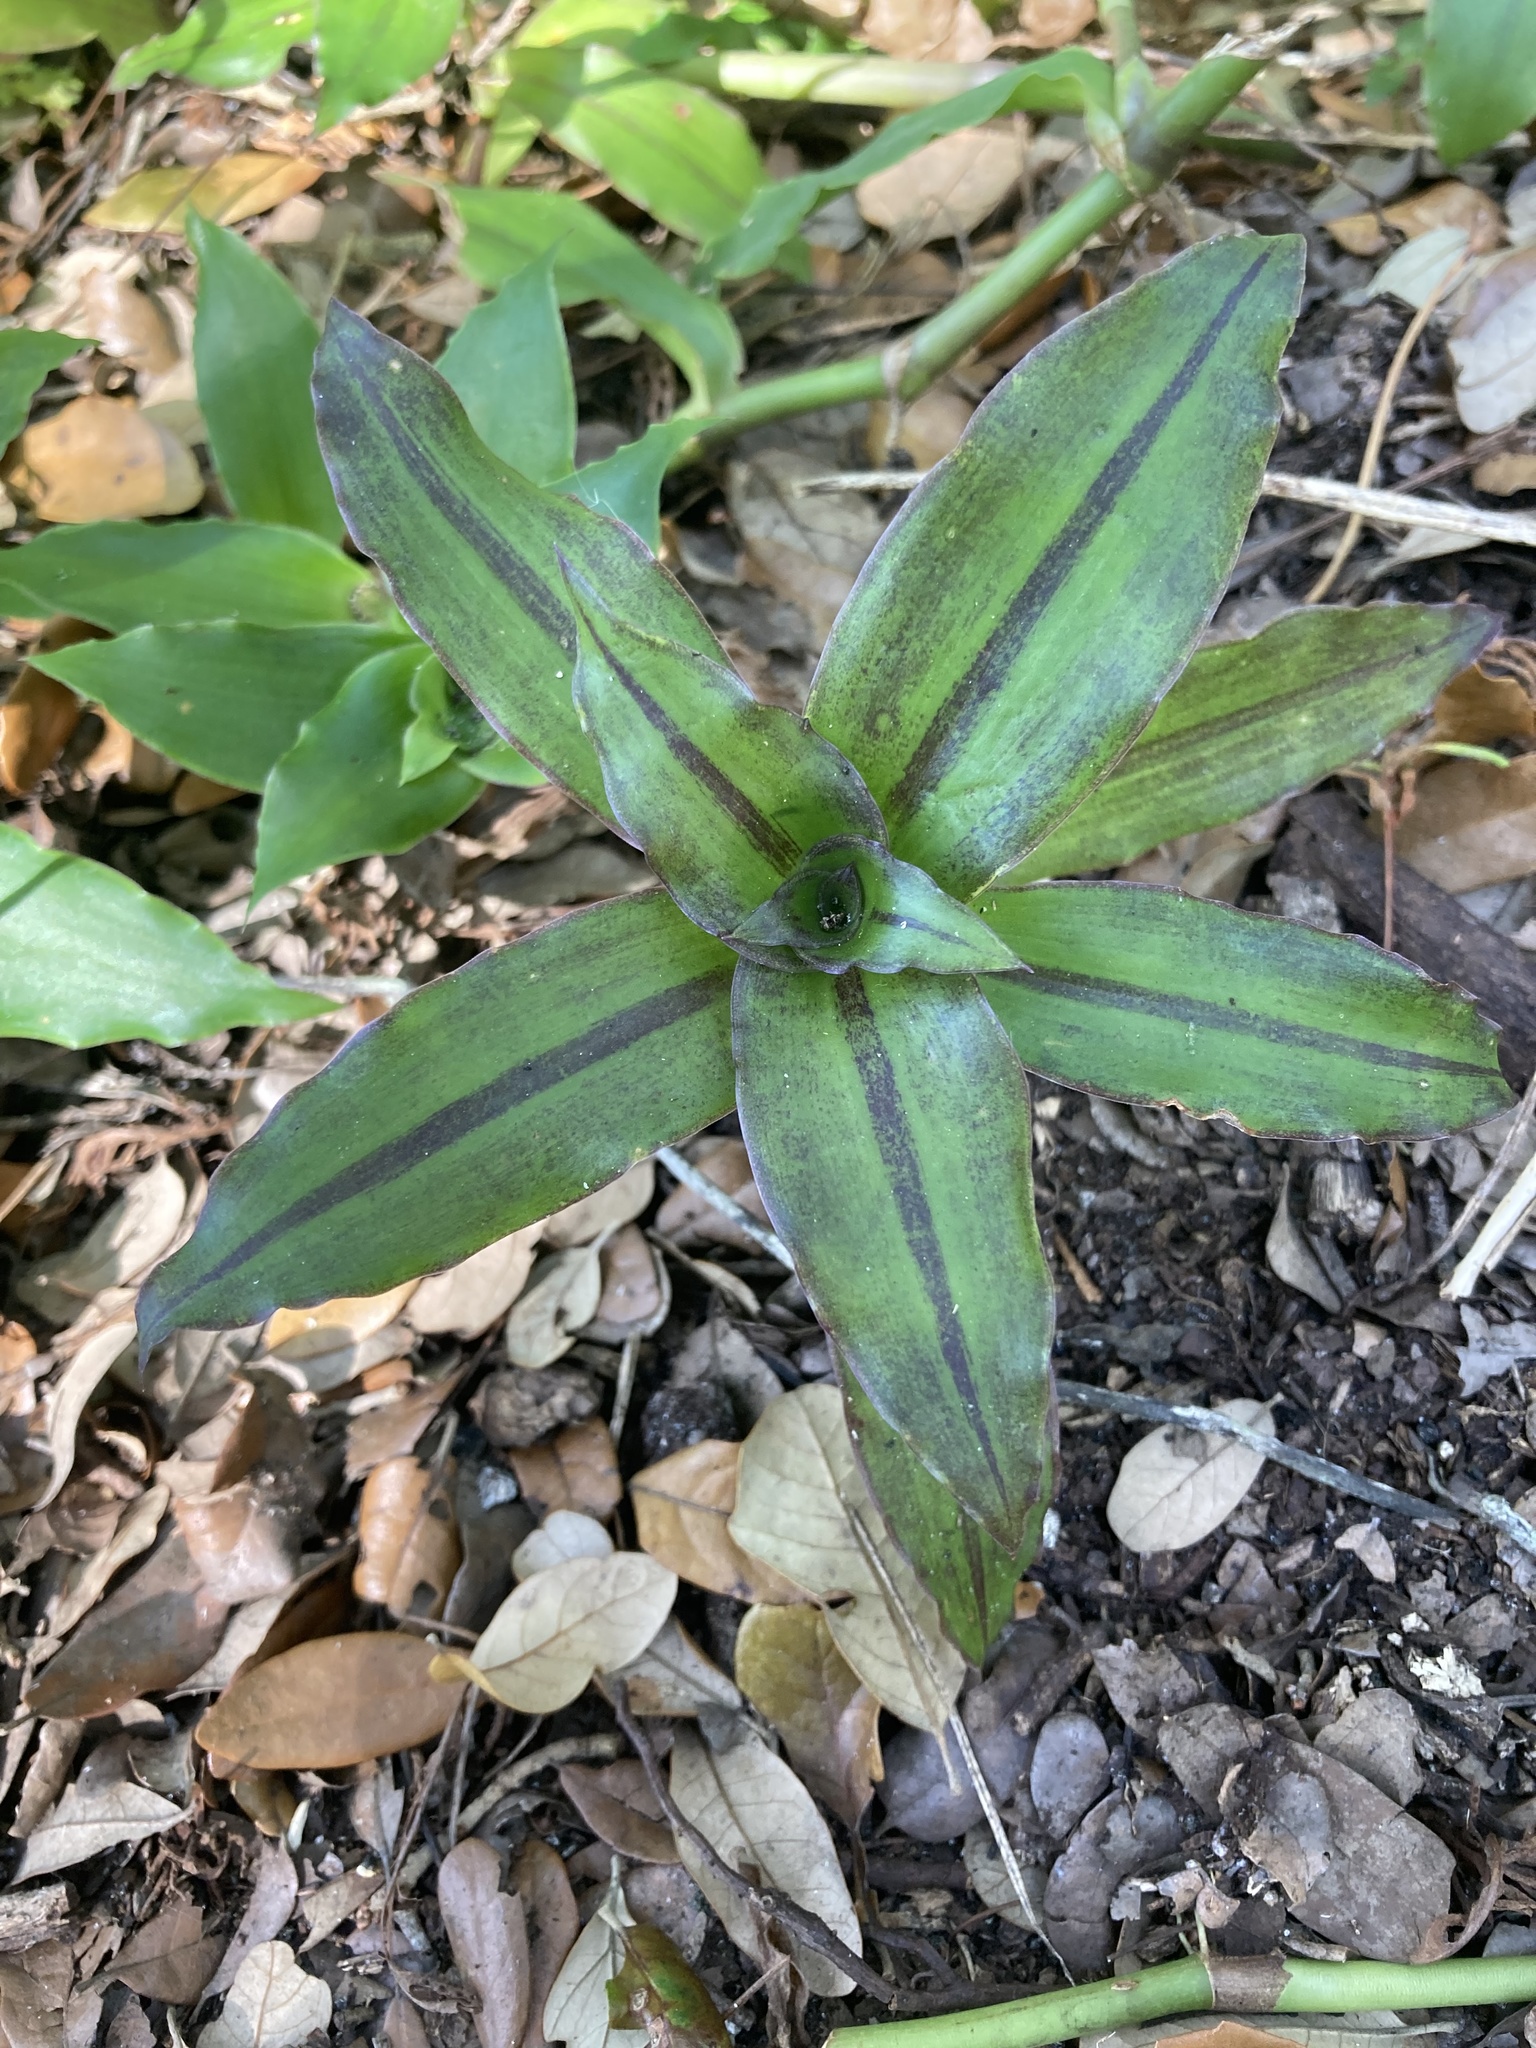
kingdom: Plantae
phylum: Tracheophyta
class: Liliopsida
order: Commelinales
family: Commelinaceae
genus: Callisia
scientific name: Callisia fragrans
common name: Basketplant
